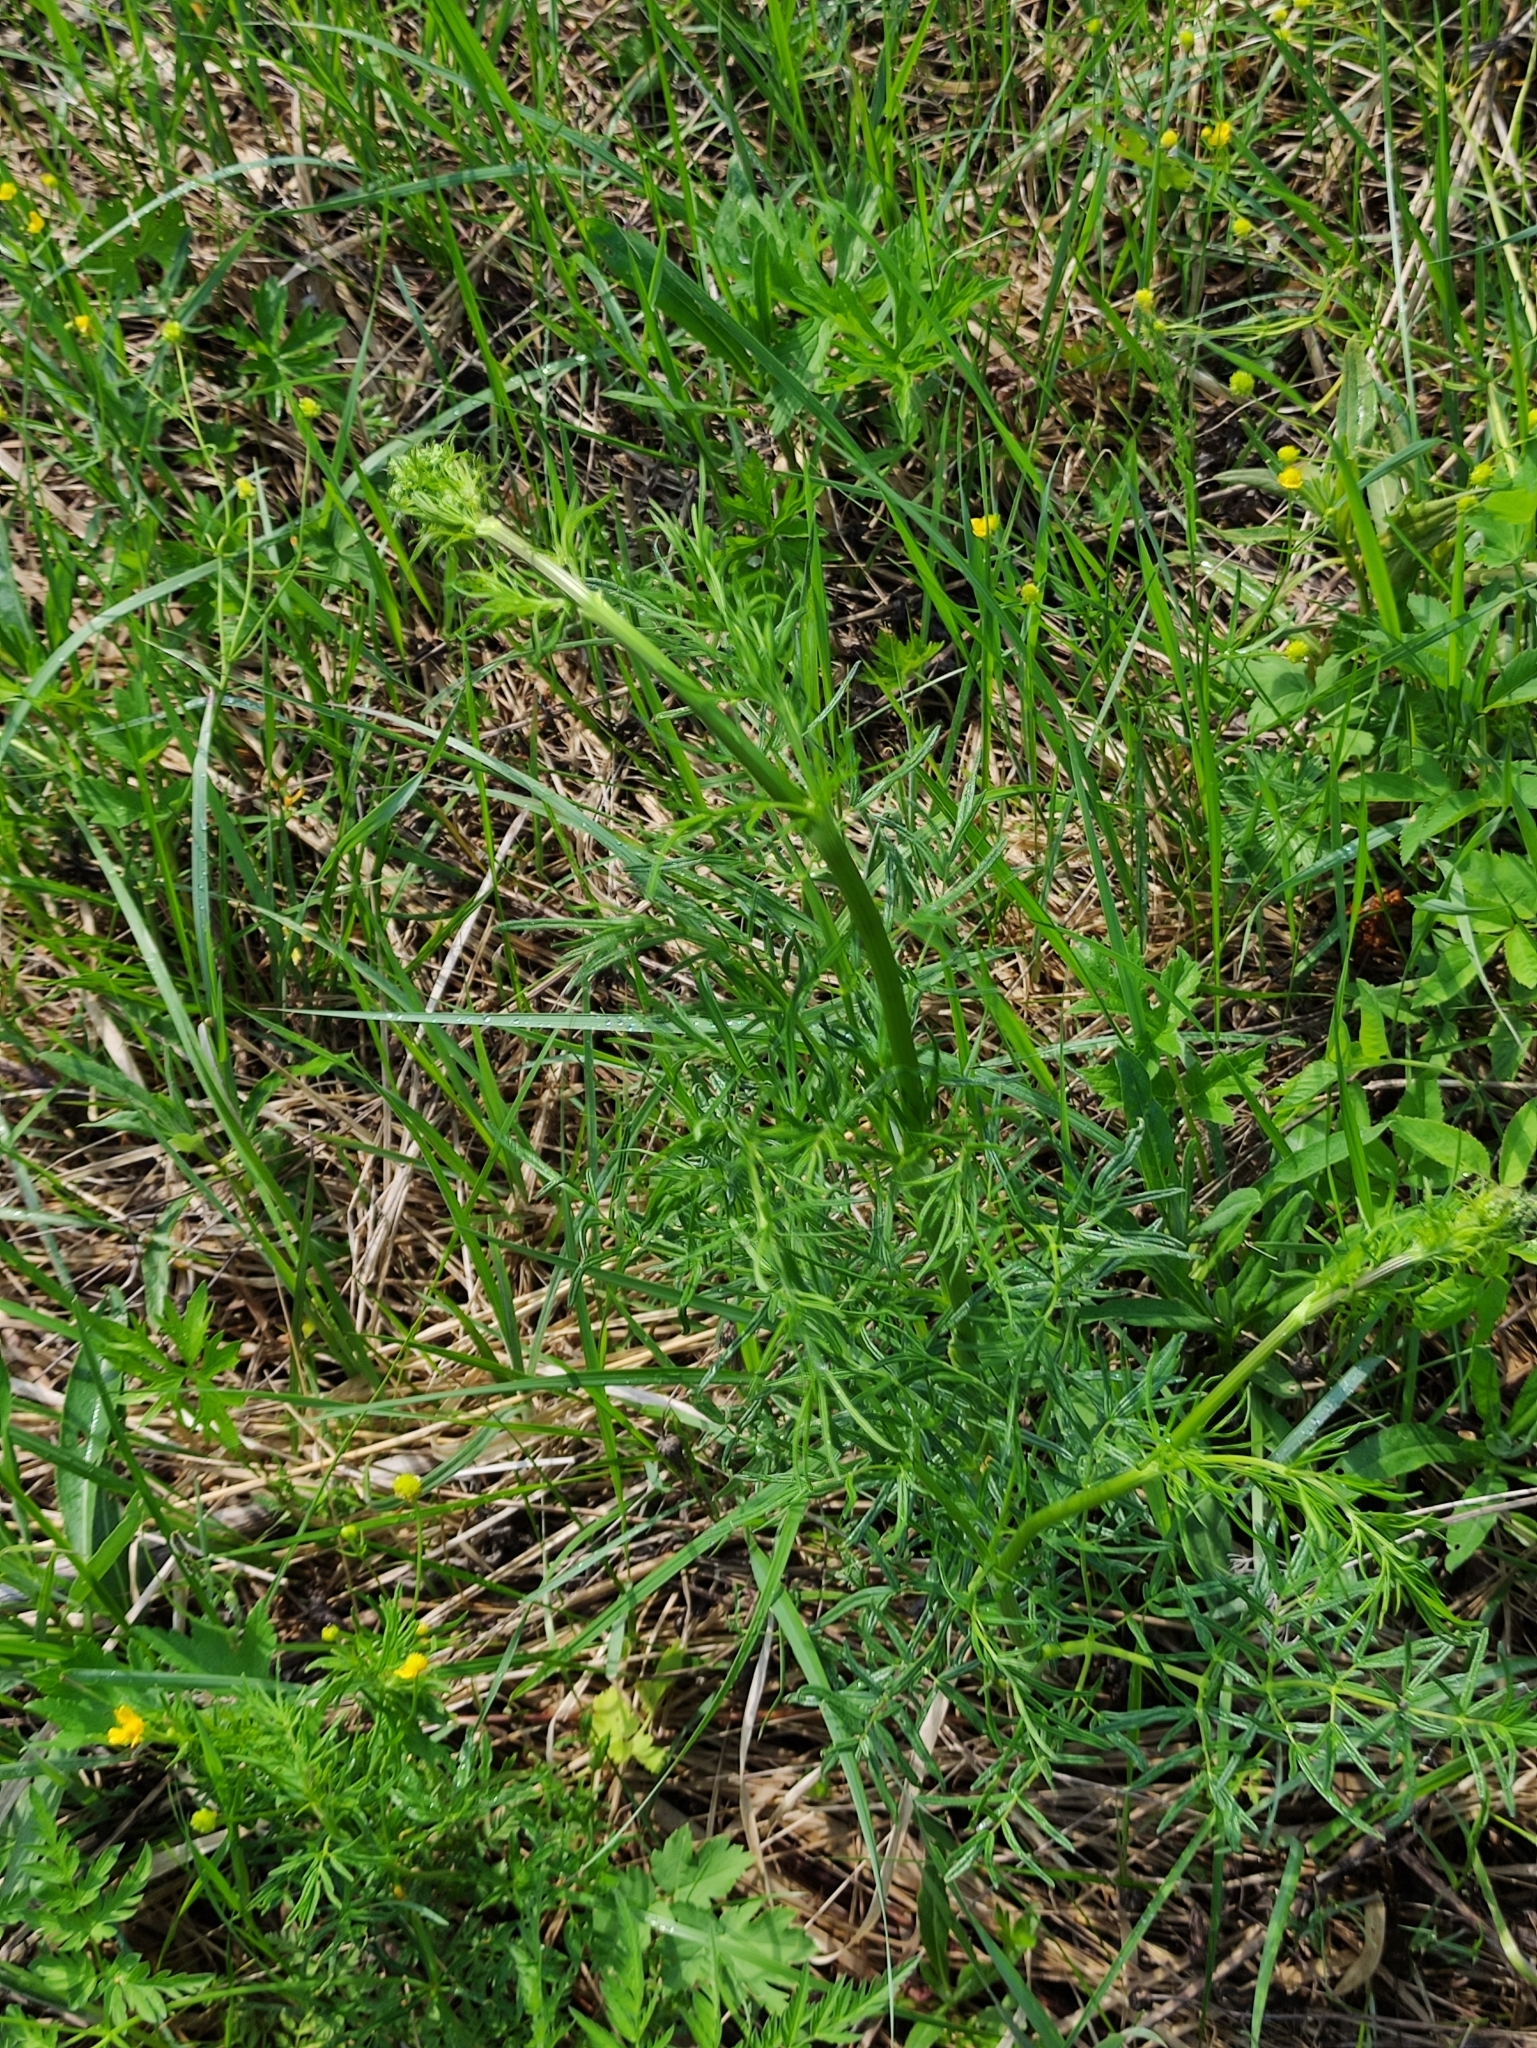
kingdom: Plantae
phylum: Tracheophyta
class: Magnoliopsida
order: Ranunculales
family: Ranunculaceae
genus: Thalictrum
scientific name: Thalictrum lucidum
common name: Shining meadow-rue
